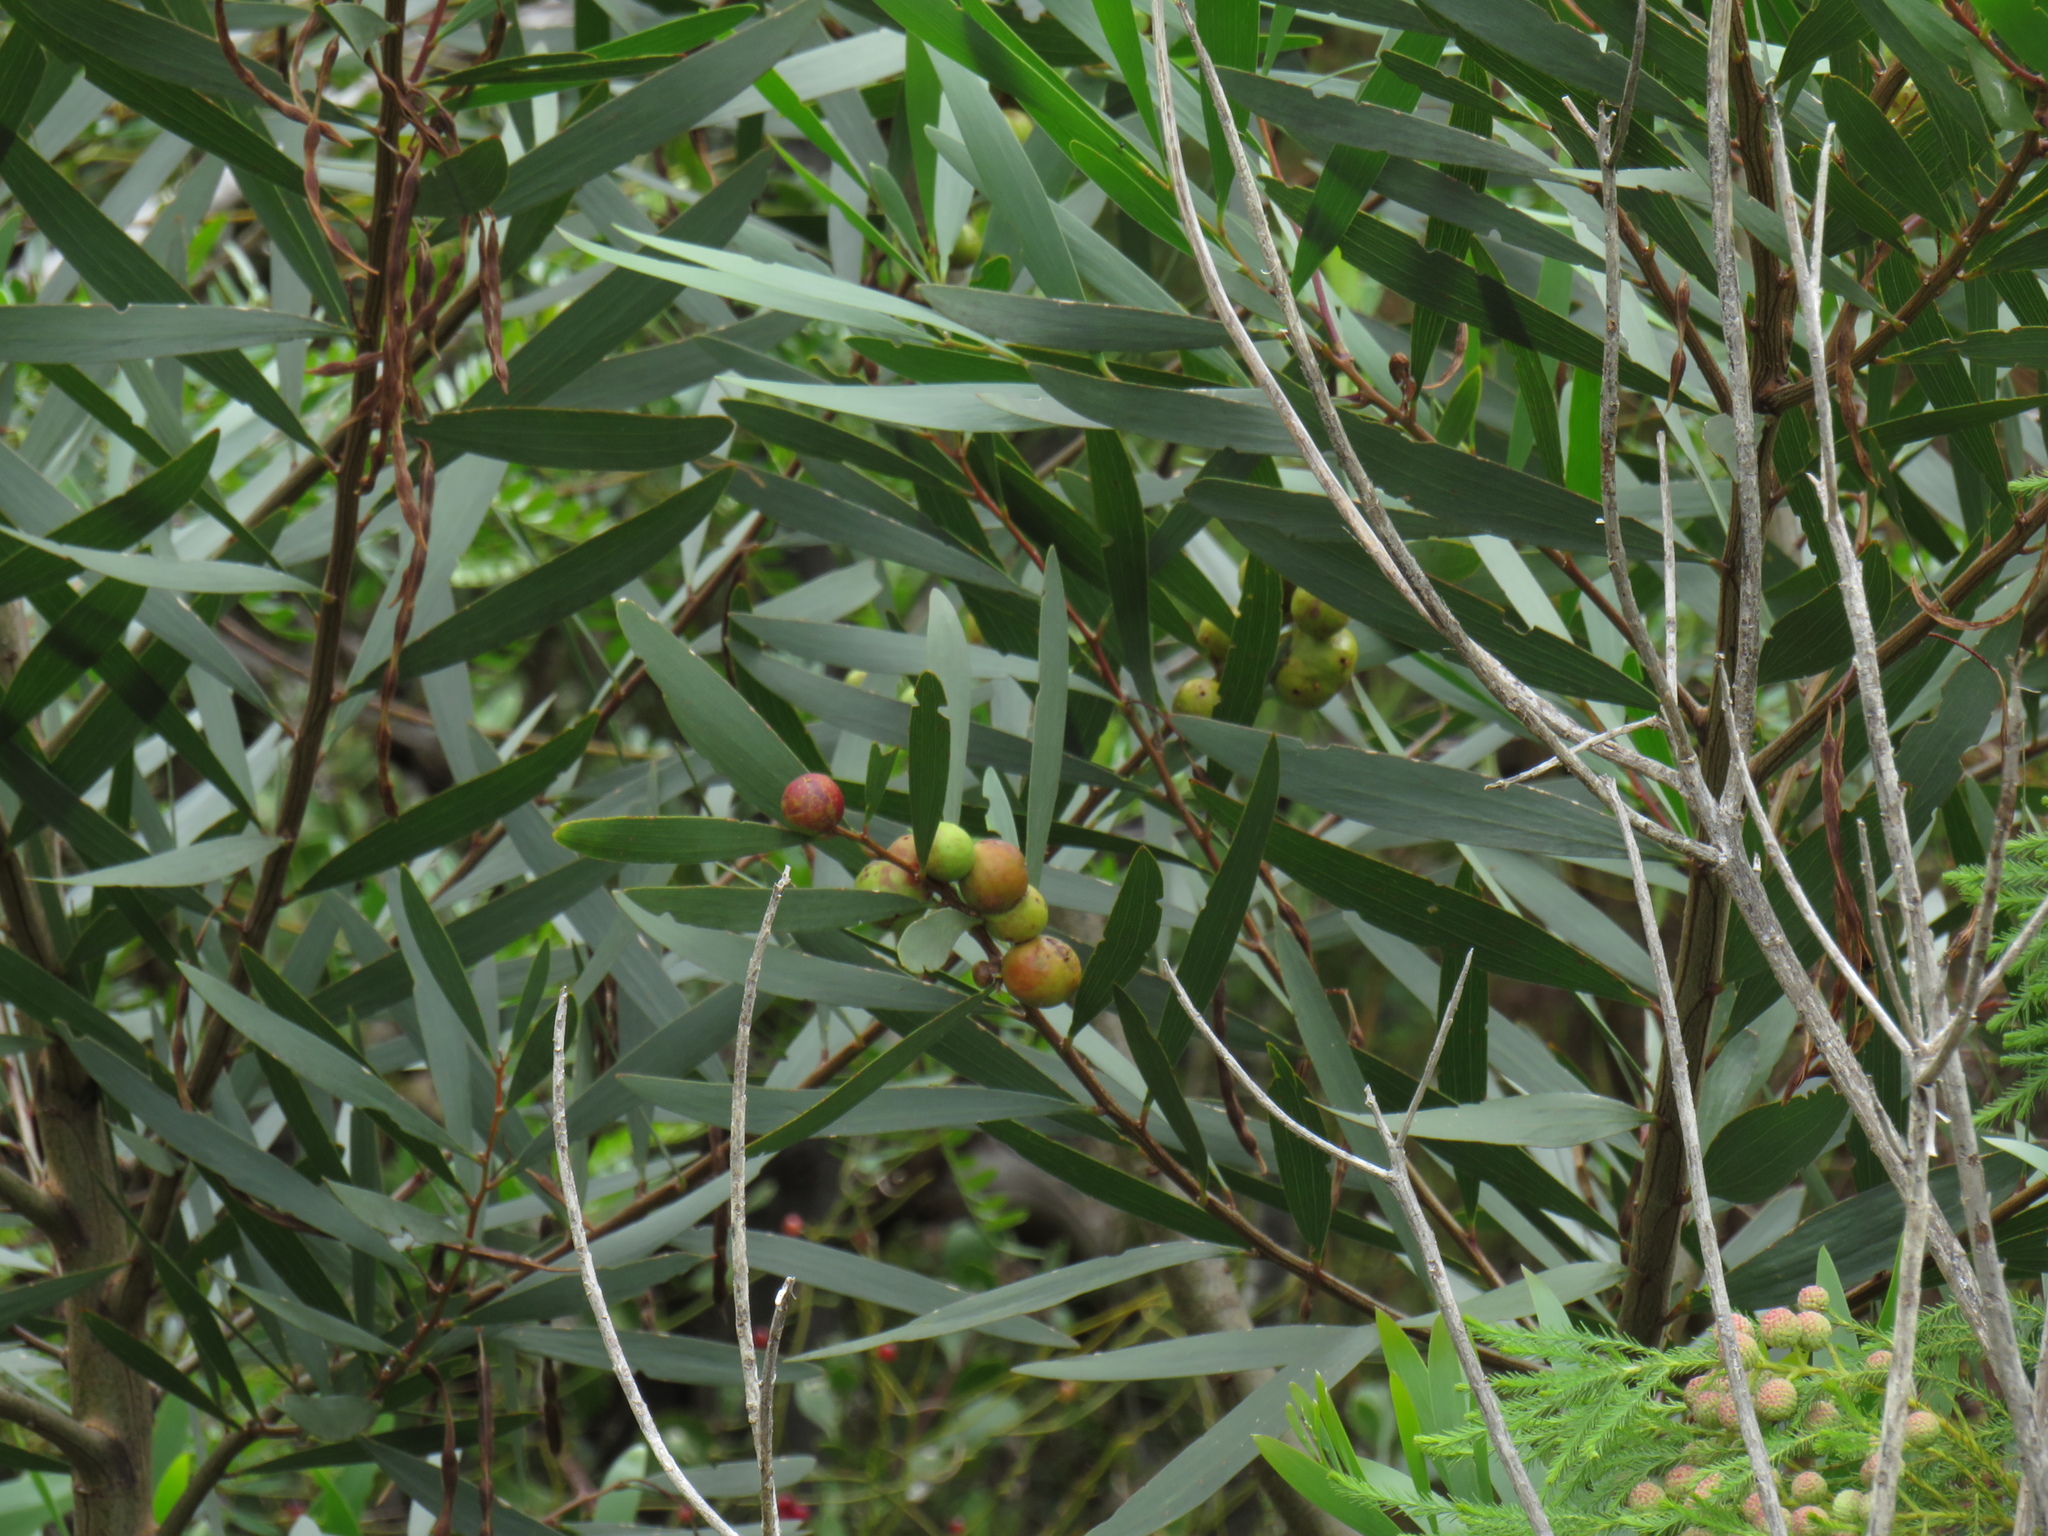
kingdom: Animalia
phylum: Arthropoda
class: Insecta
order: Hymenoptera
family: Pteromalidae
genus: Trichilogaster
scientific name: Trichilogaster acaciaelongifoliae
